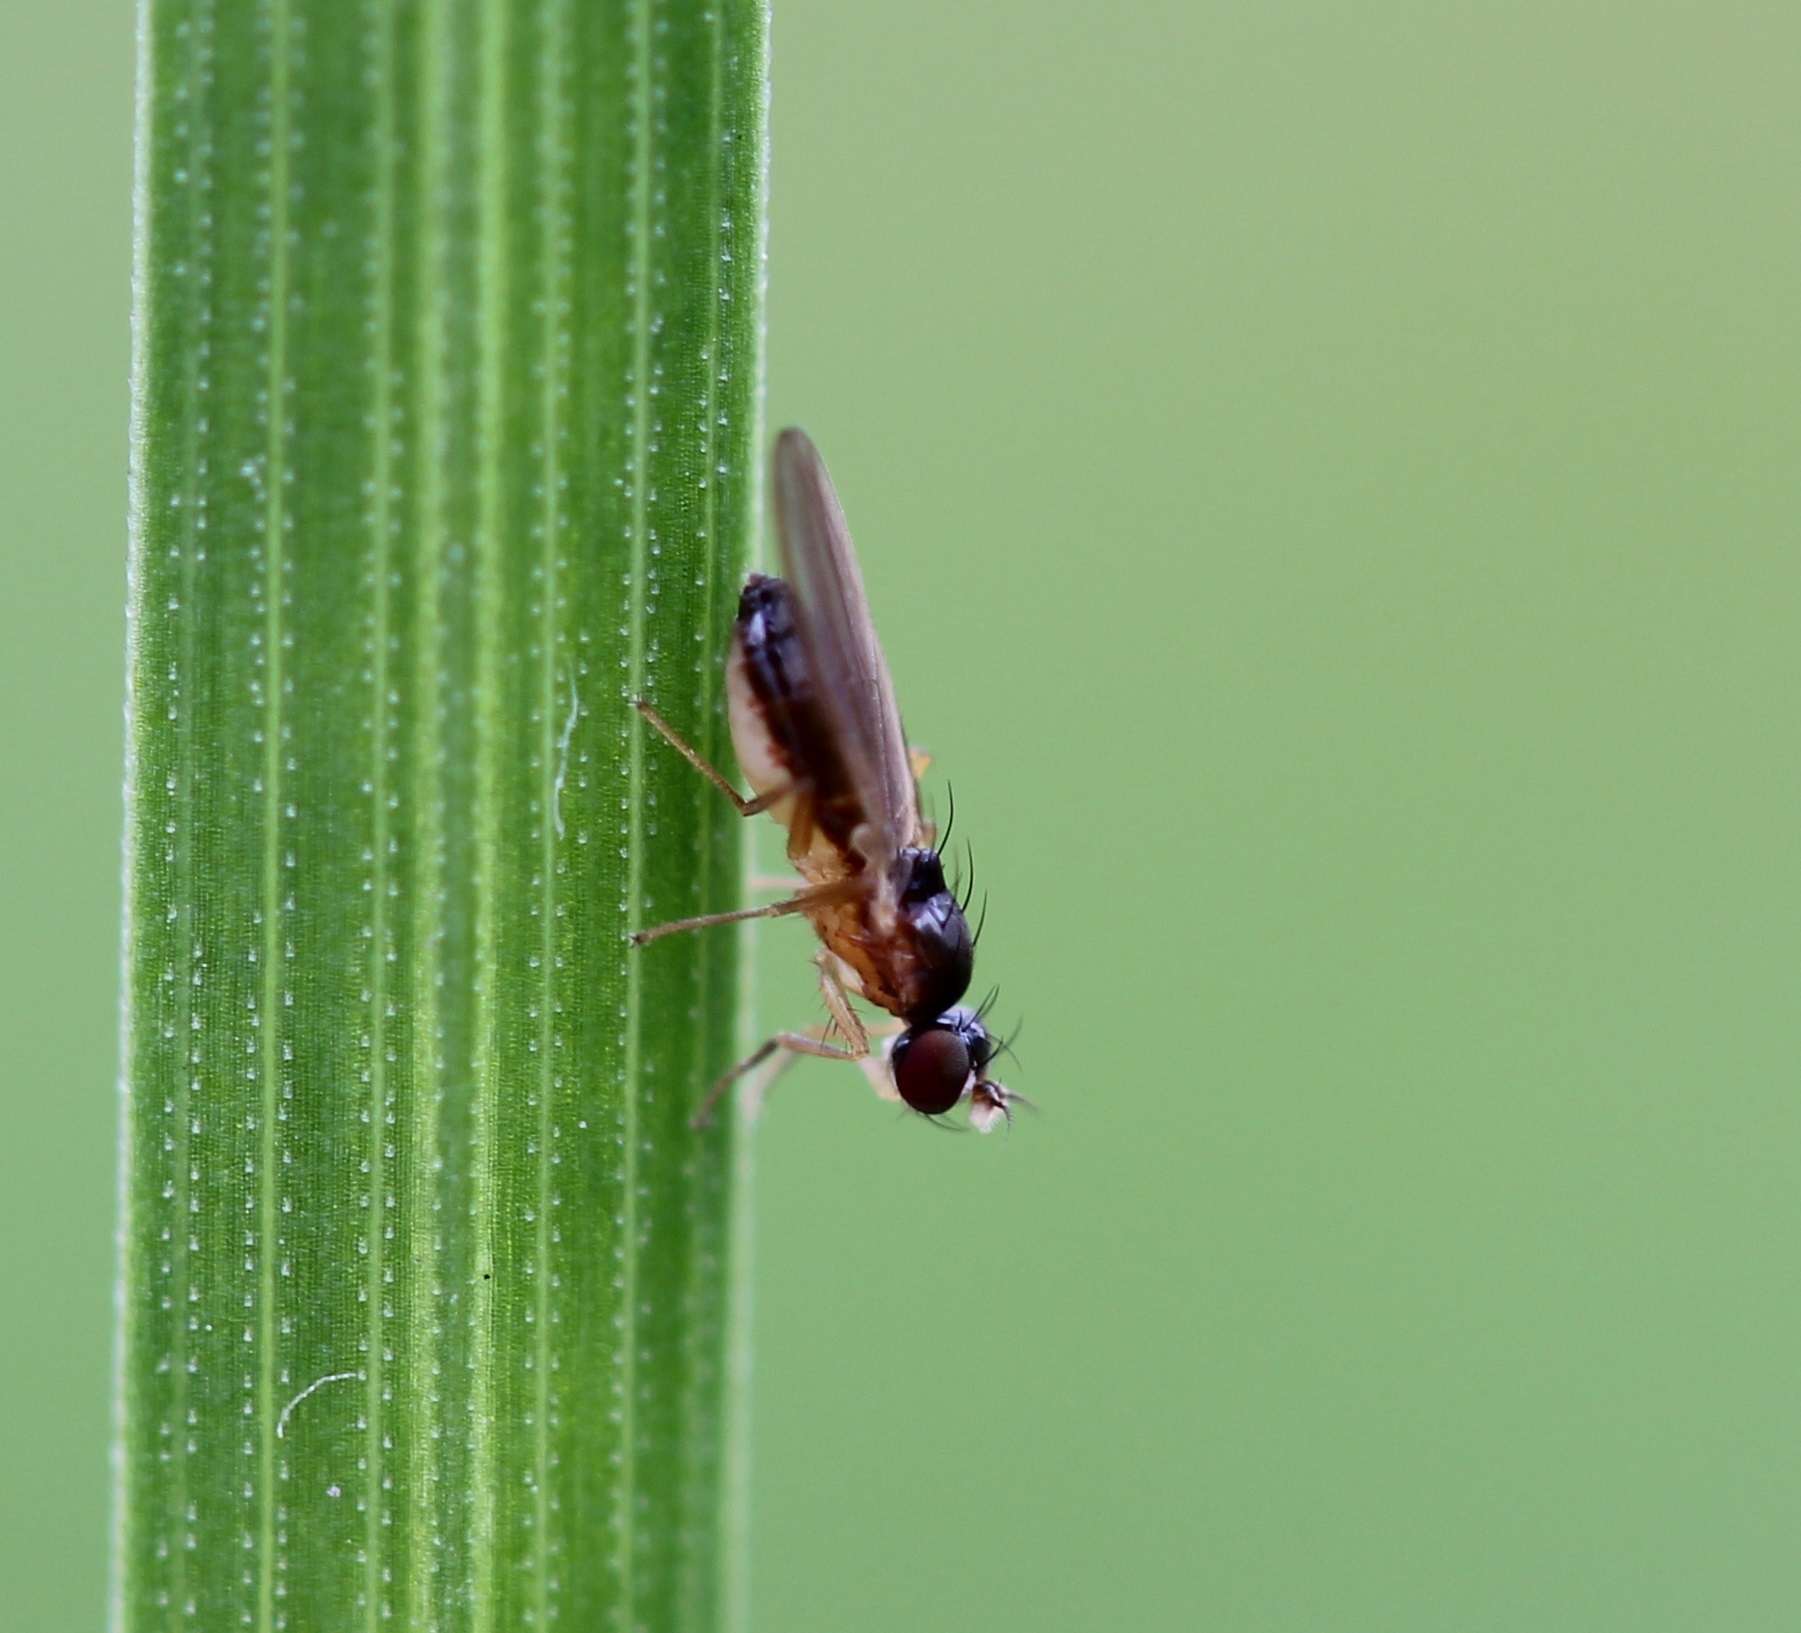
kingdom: Animalia
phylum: Arthropoda
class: Insecta
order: Diptera
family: Anthomyzidae
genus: Mumetopia
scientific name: Mumetopia occipitalis
